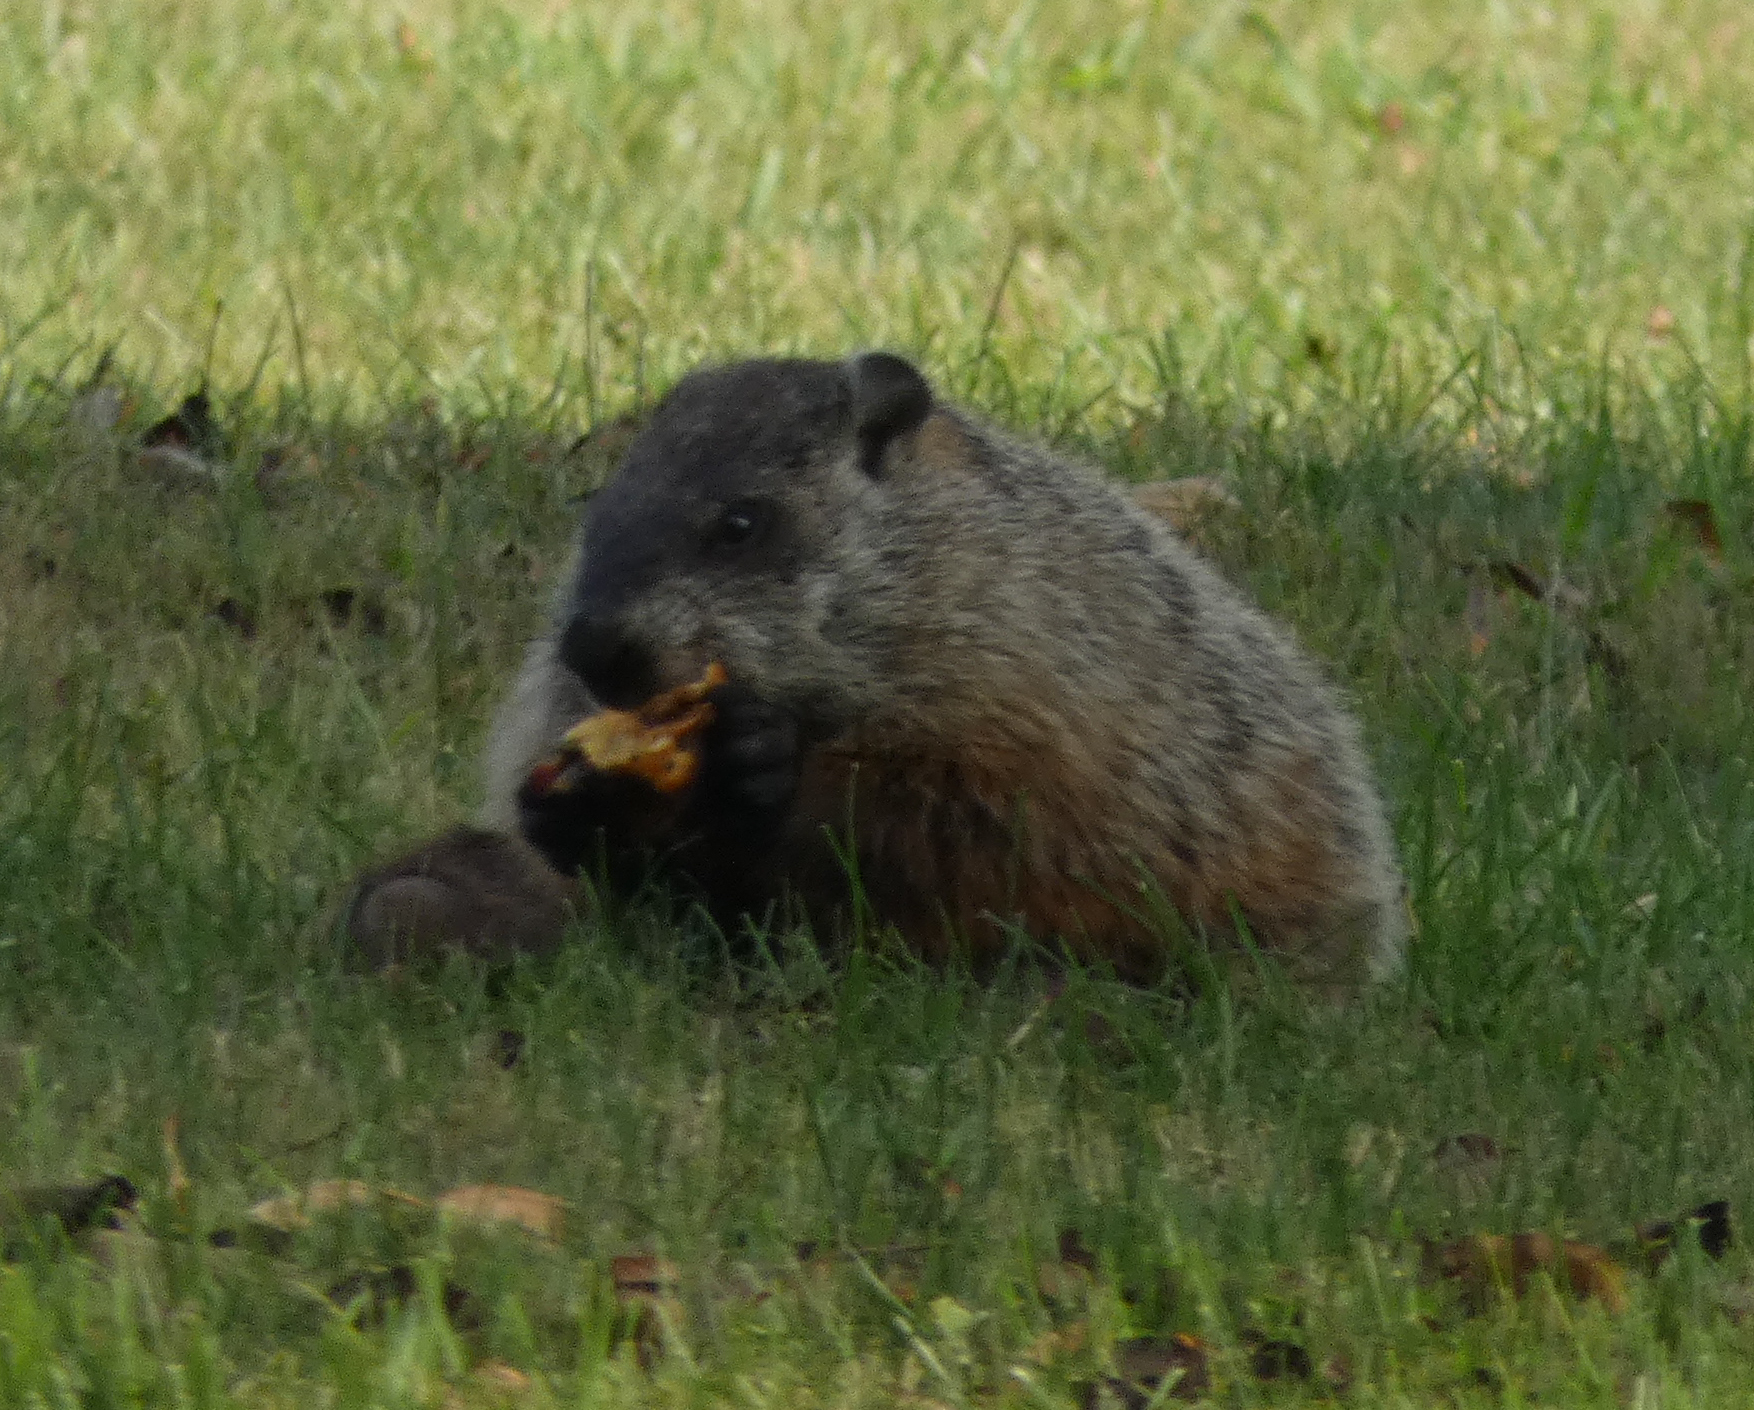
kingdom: Animalia
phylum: Chordata
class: Mammalia
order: Rodentia
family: Sciuridae
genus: Marmota
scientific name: Marmota monax
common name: Groundhog
